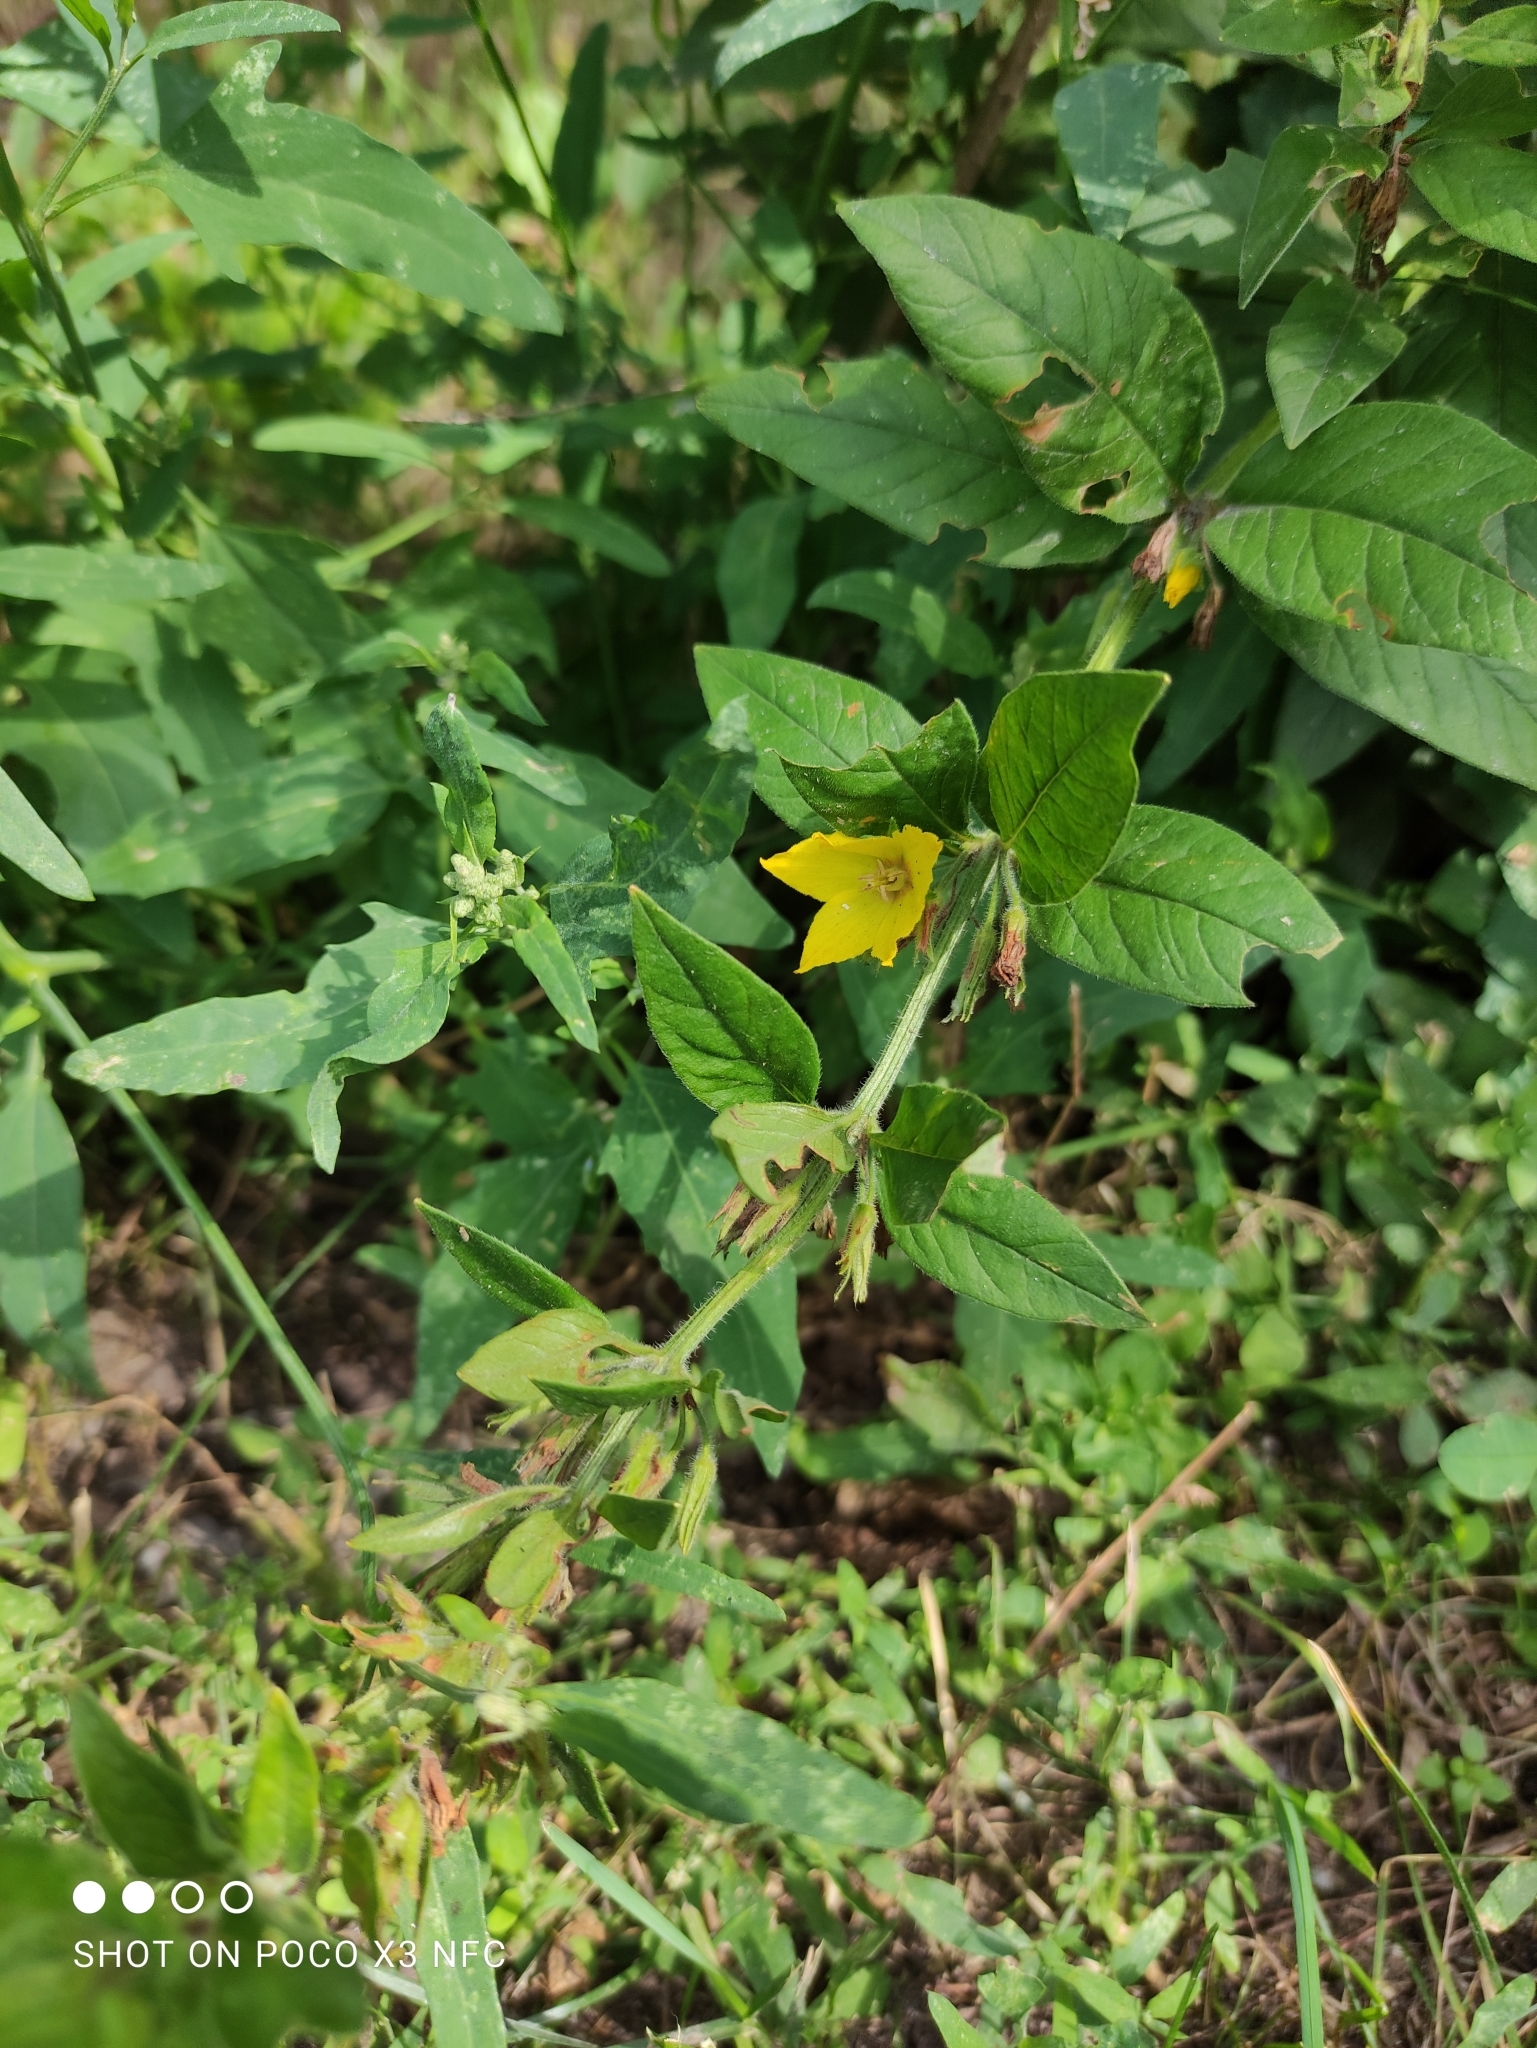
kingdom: Plantae
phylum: Tracheophyta
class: Magnoliopsida
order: Ericales
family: Primulaceae
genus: Lysimachia
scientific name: Lysimachia punctata
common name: Dotted loosestrife
